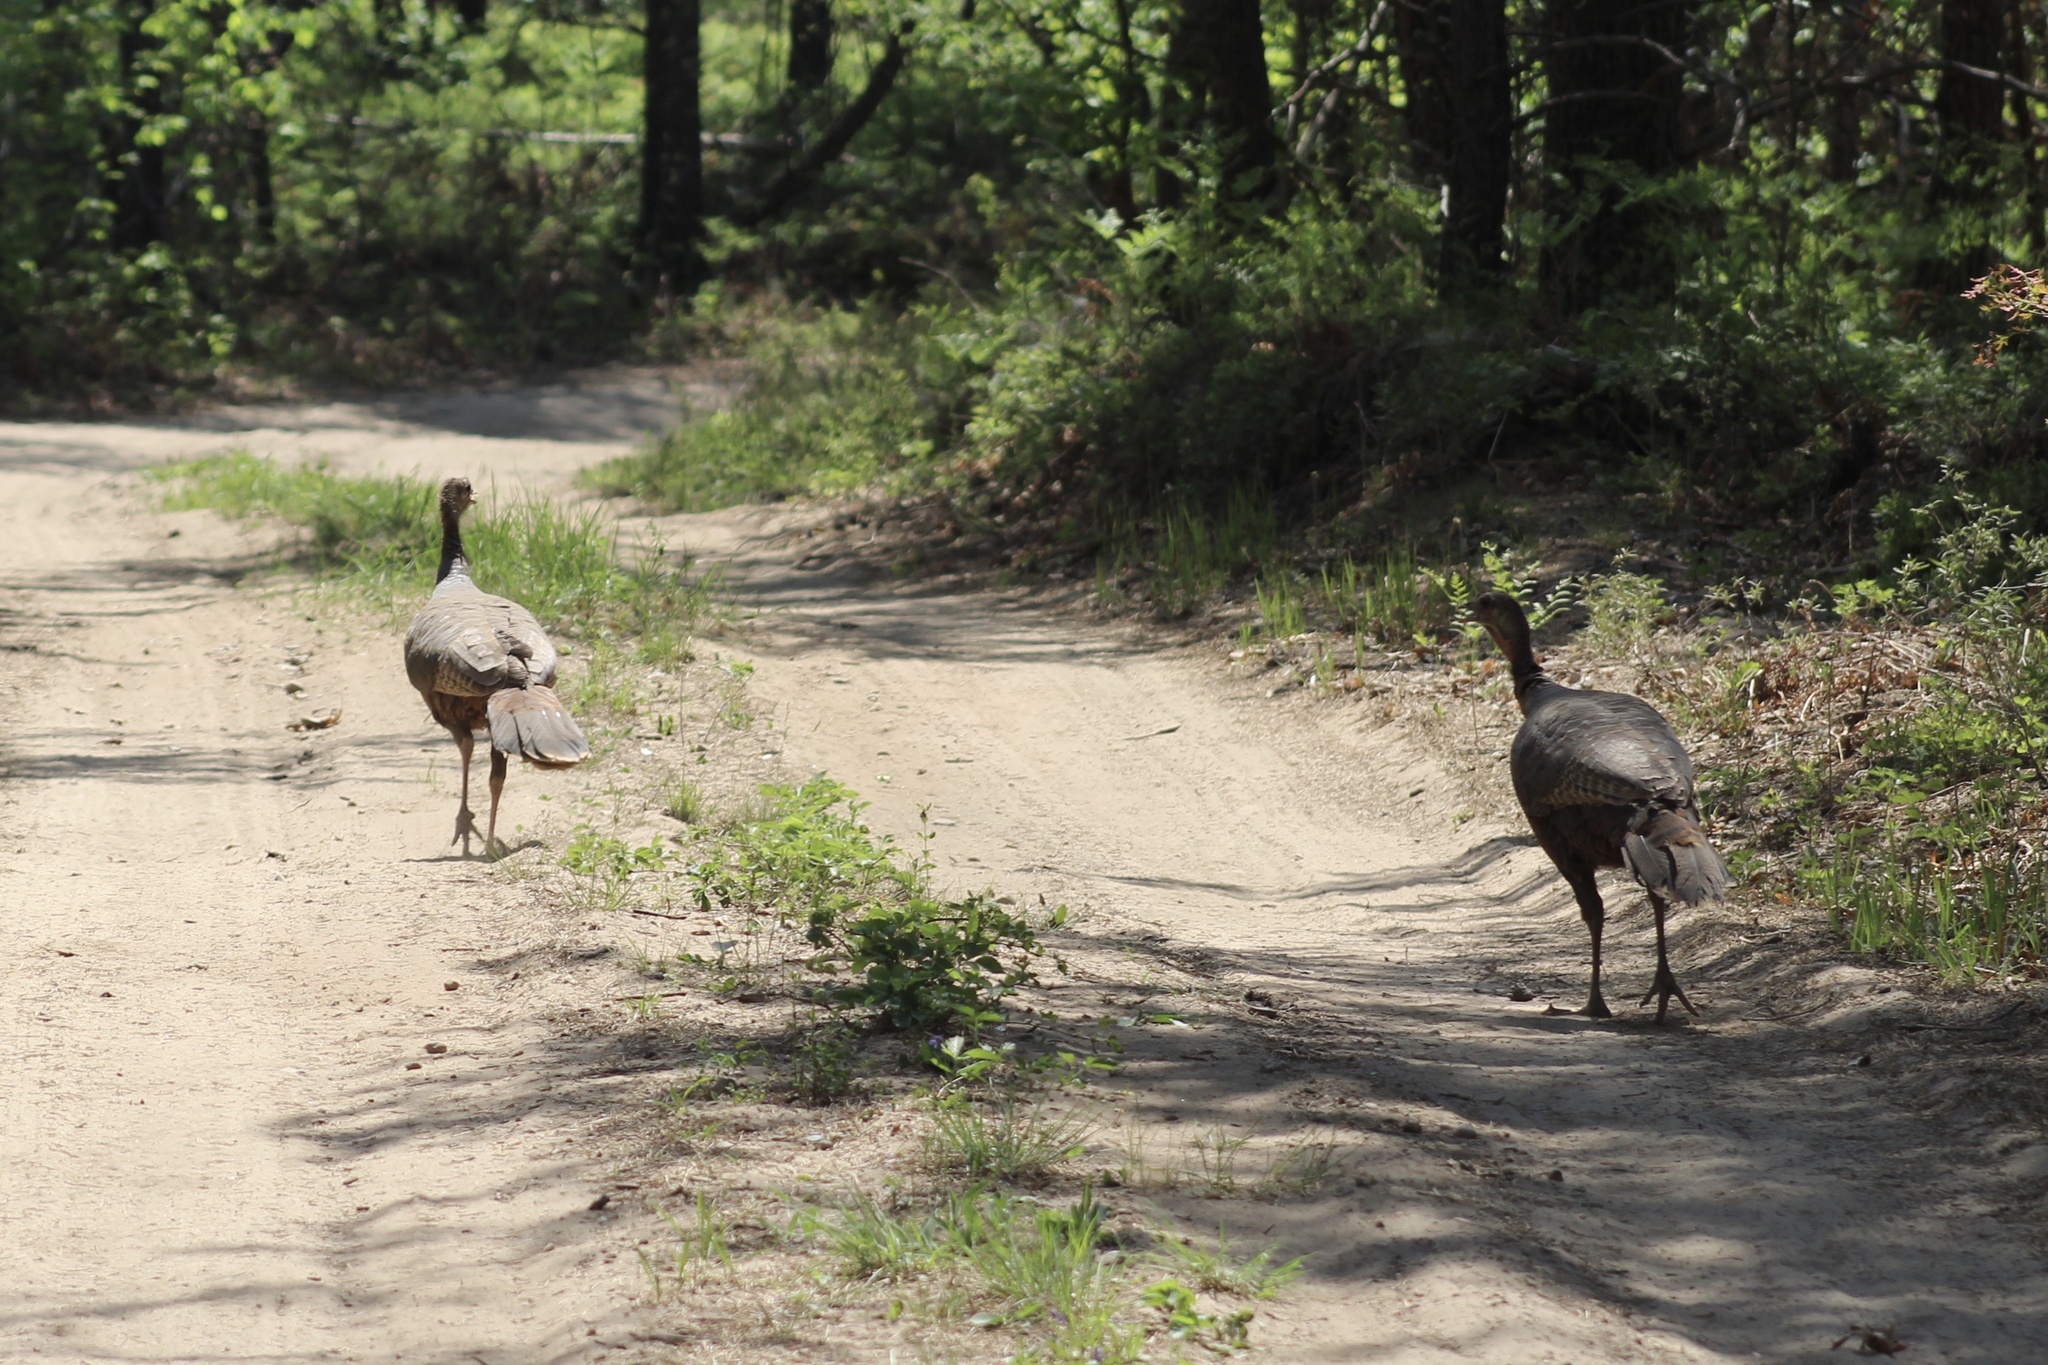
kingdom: Animalia
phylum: Chordata
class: Aves
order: Galliformes
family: Phasianidae
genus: Meleagris
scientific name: Meleagris gallopavo
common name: Wild turkey
